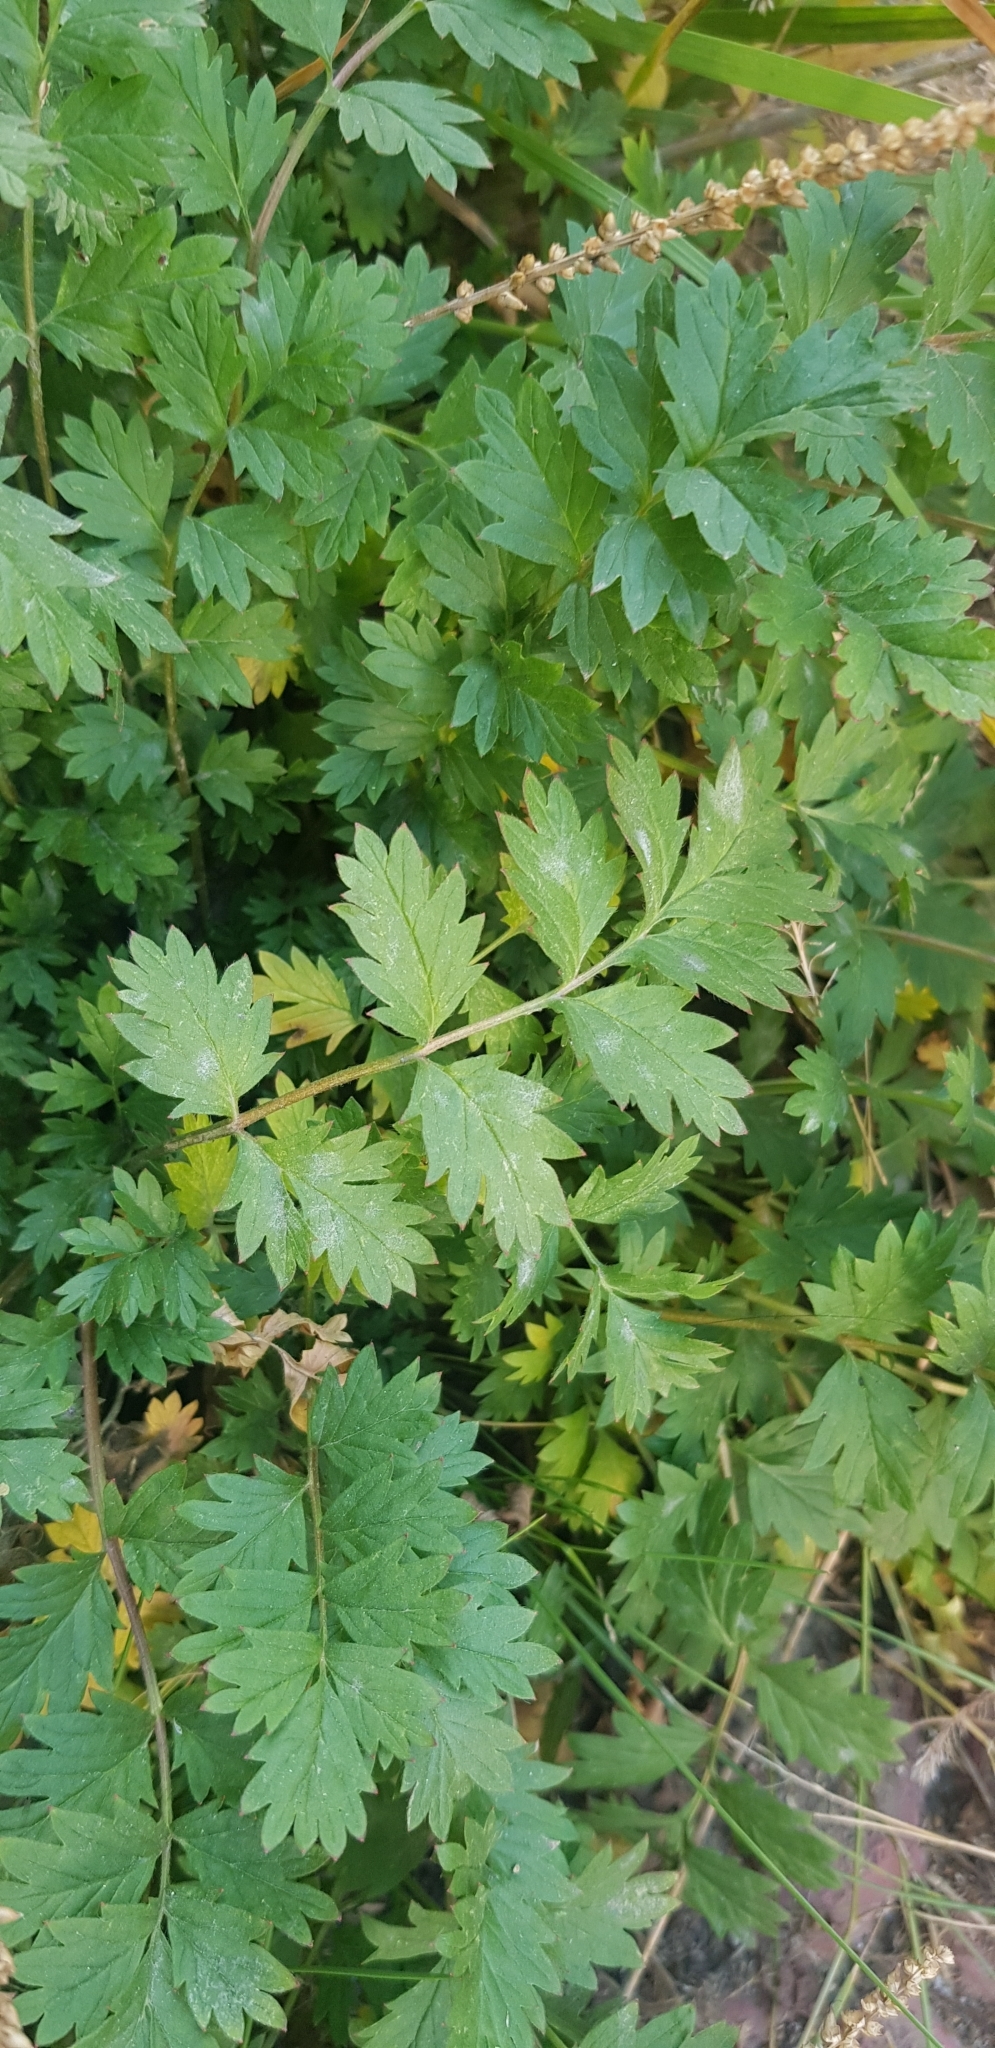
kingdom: Plantae
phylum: Tracheophyta
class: Magnoliopsida
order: Rosales
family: Rosaceae
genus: Potentilla
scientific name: Potentilla supina
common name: Prostrate cinquefoil
